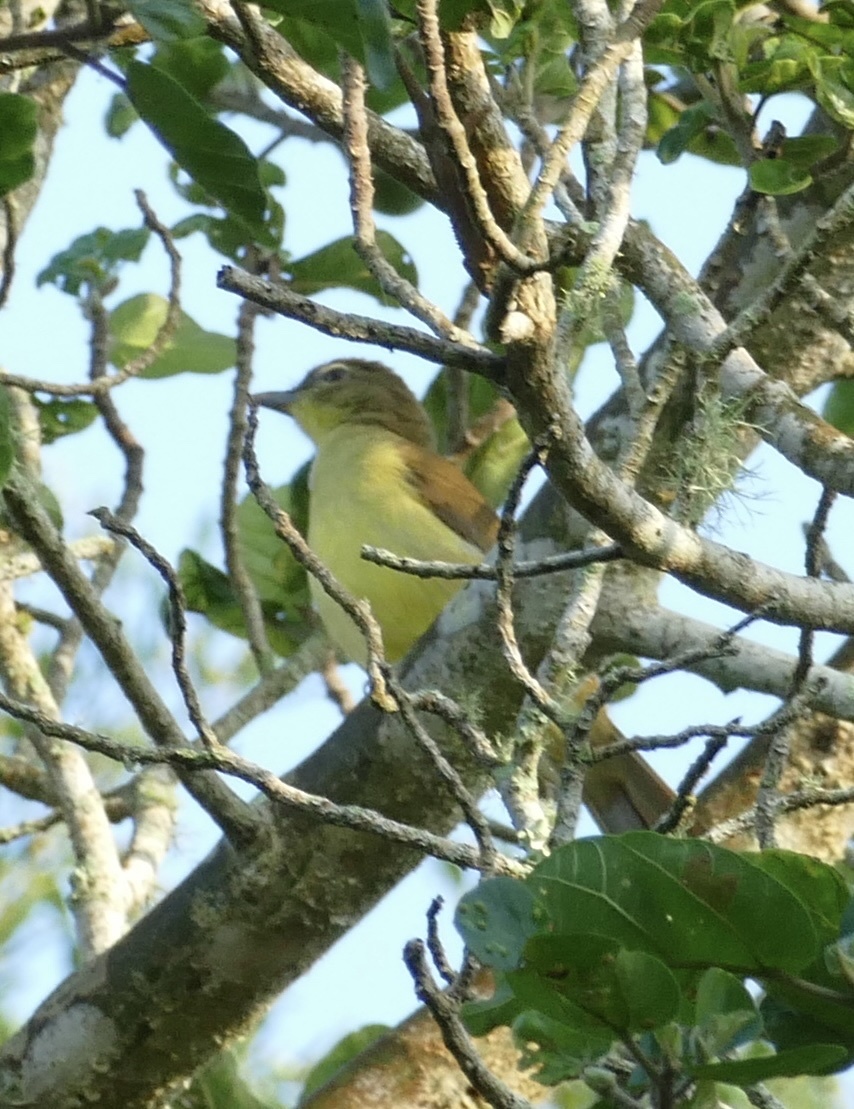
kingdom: Animalia
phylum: Chordata
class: Aves
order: Passeriformes
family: Pycnonotidae
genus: Chlorocichla
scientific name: Chlorocichla flaviventris
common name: Yellow-bellied greenbul
